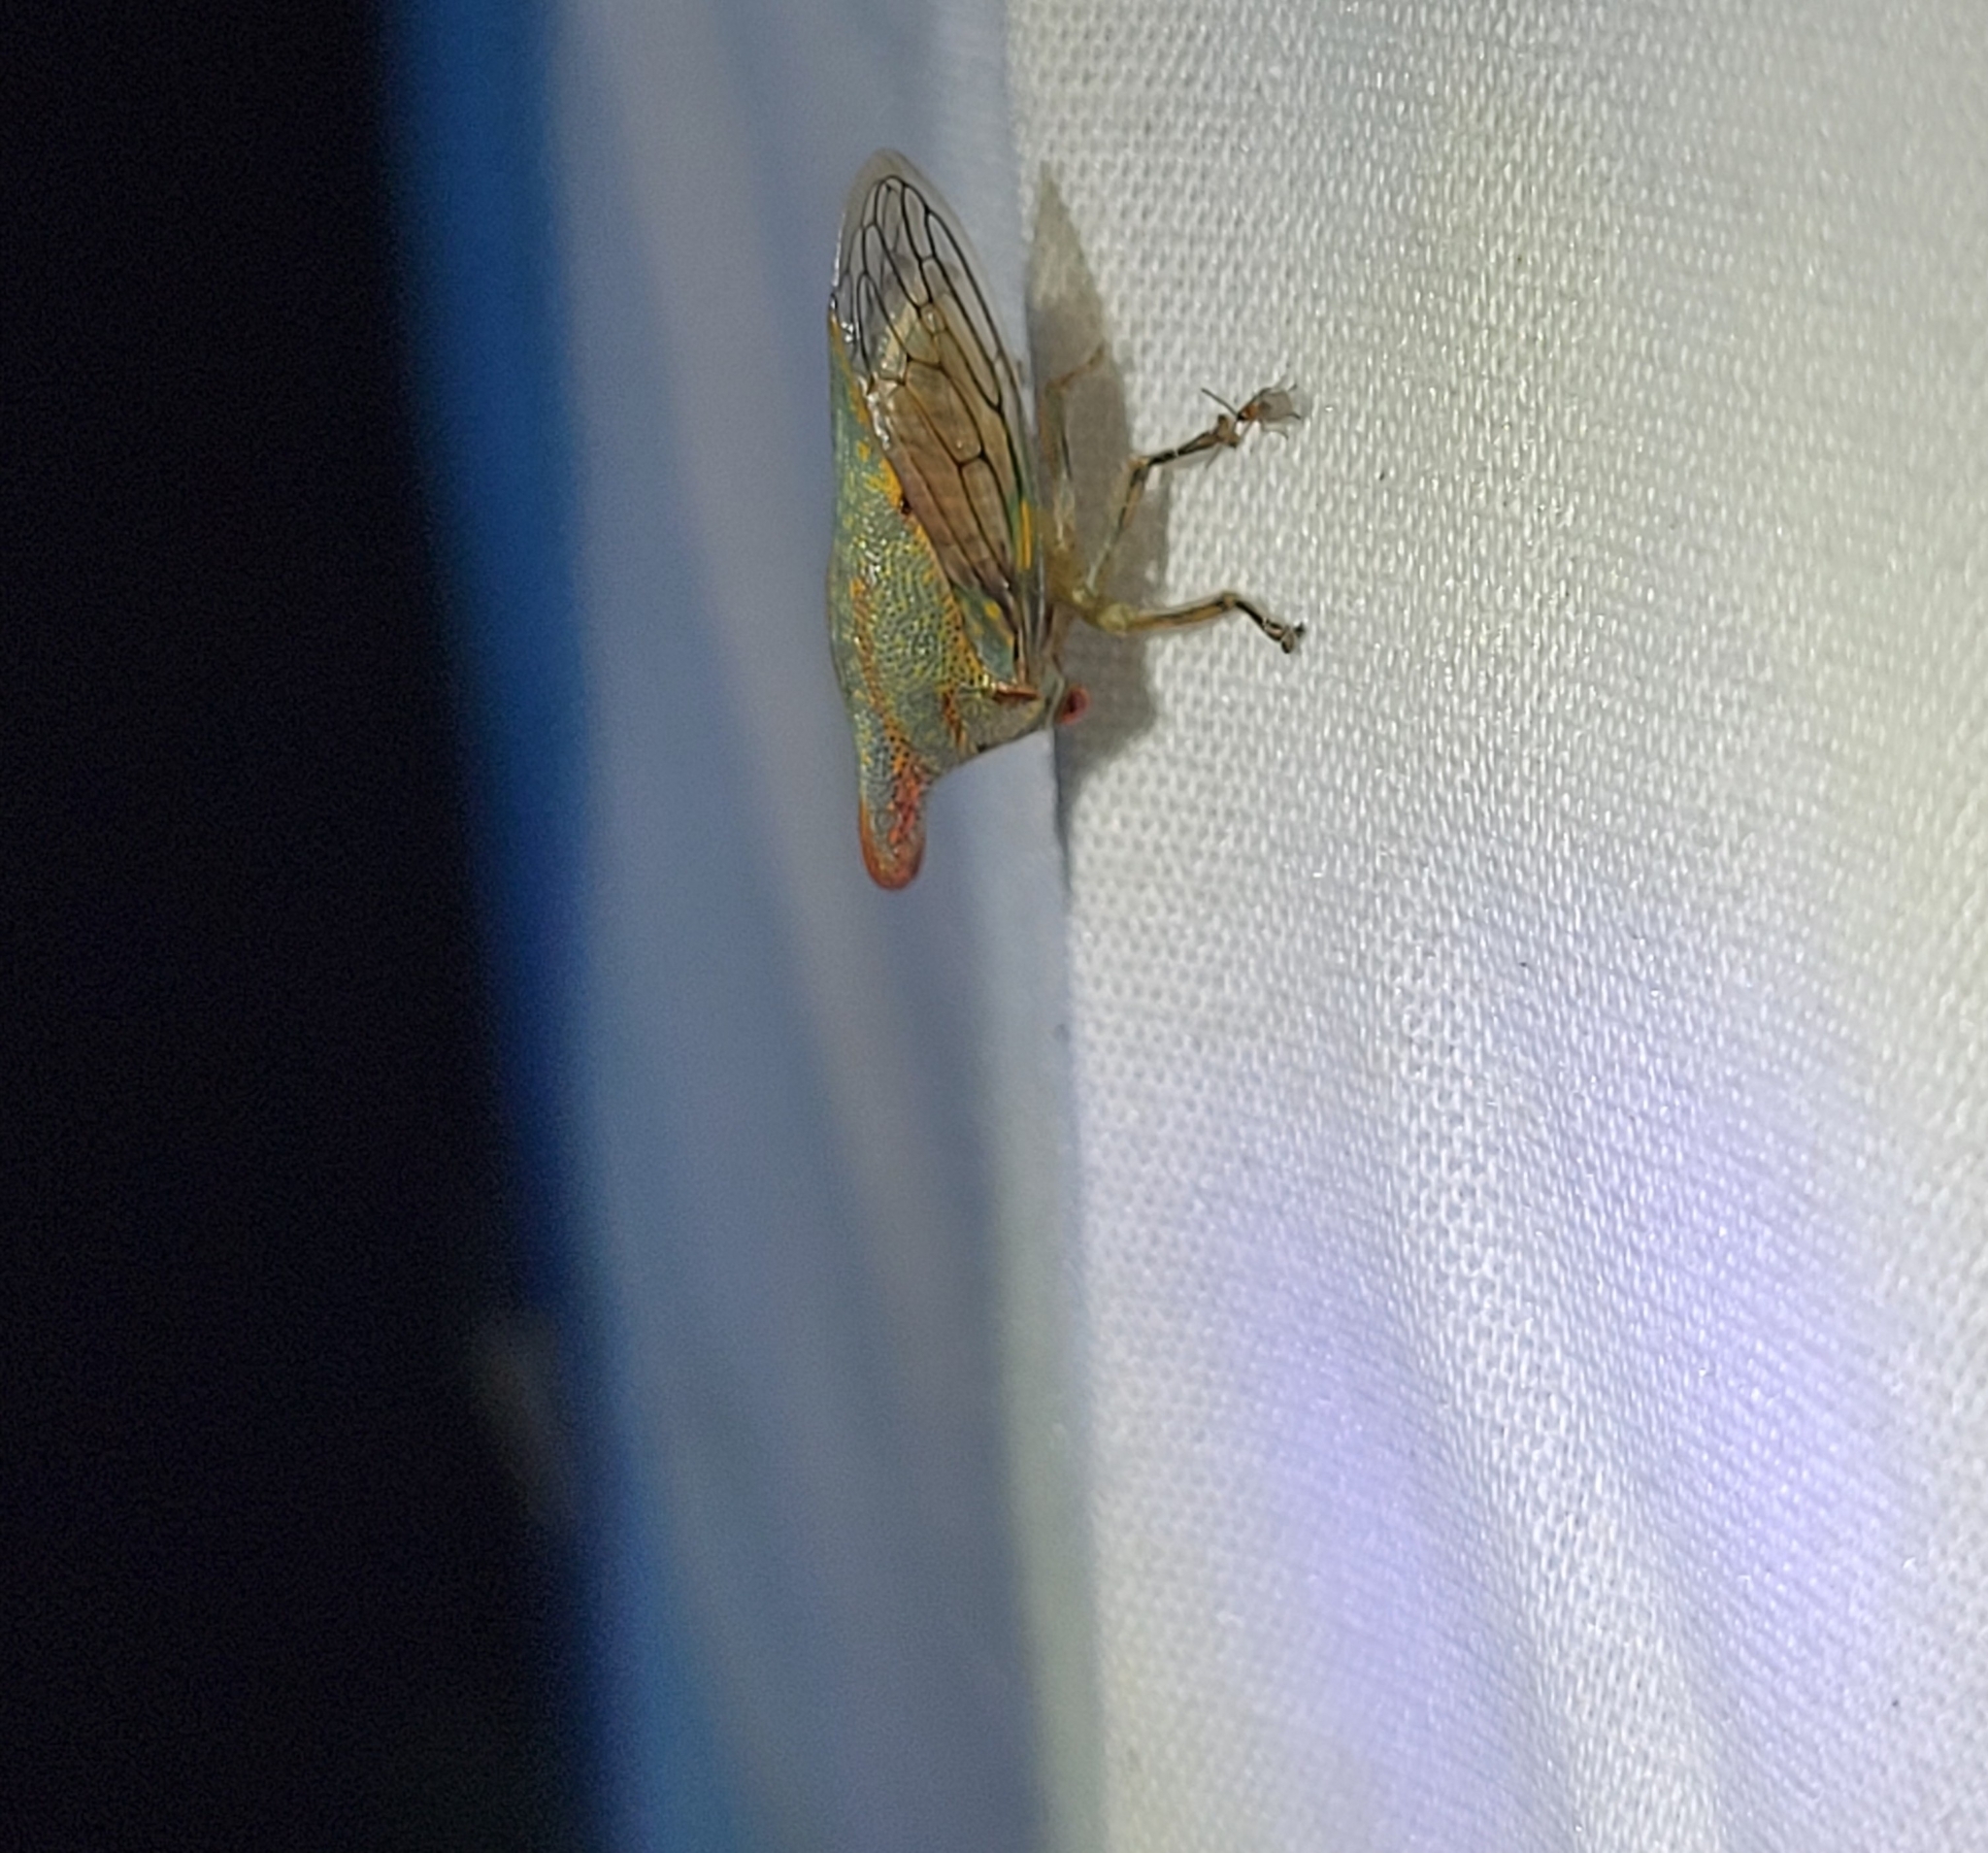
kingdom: Animalia
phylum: Arthropoda
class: Insecta
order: Hemiptera
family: Membracidae
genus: Platycotis
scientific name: Platycotis vittatus
